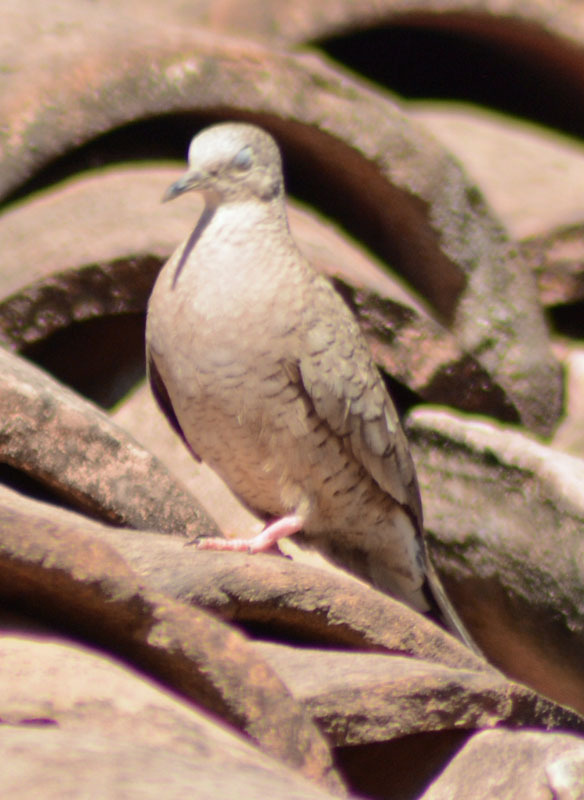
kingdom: Animalia
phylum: Chordata
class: Aves
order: Columbiformes
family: Columbidae
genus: Columbina
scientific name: Columbina inca
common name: Inca dove
